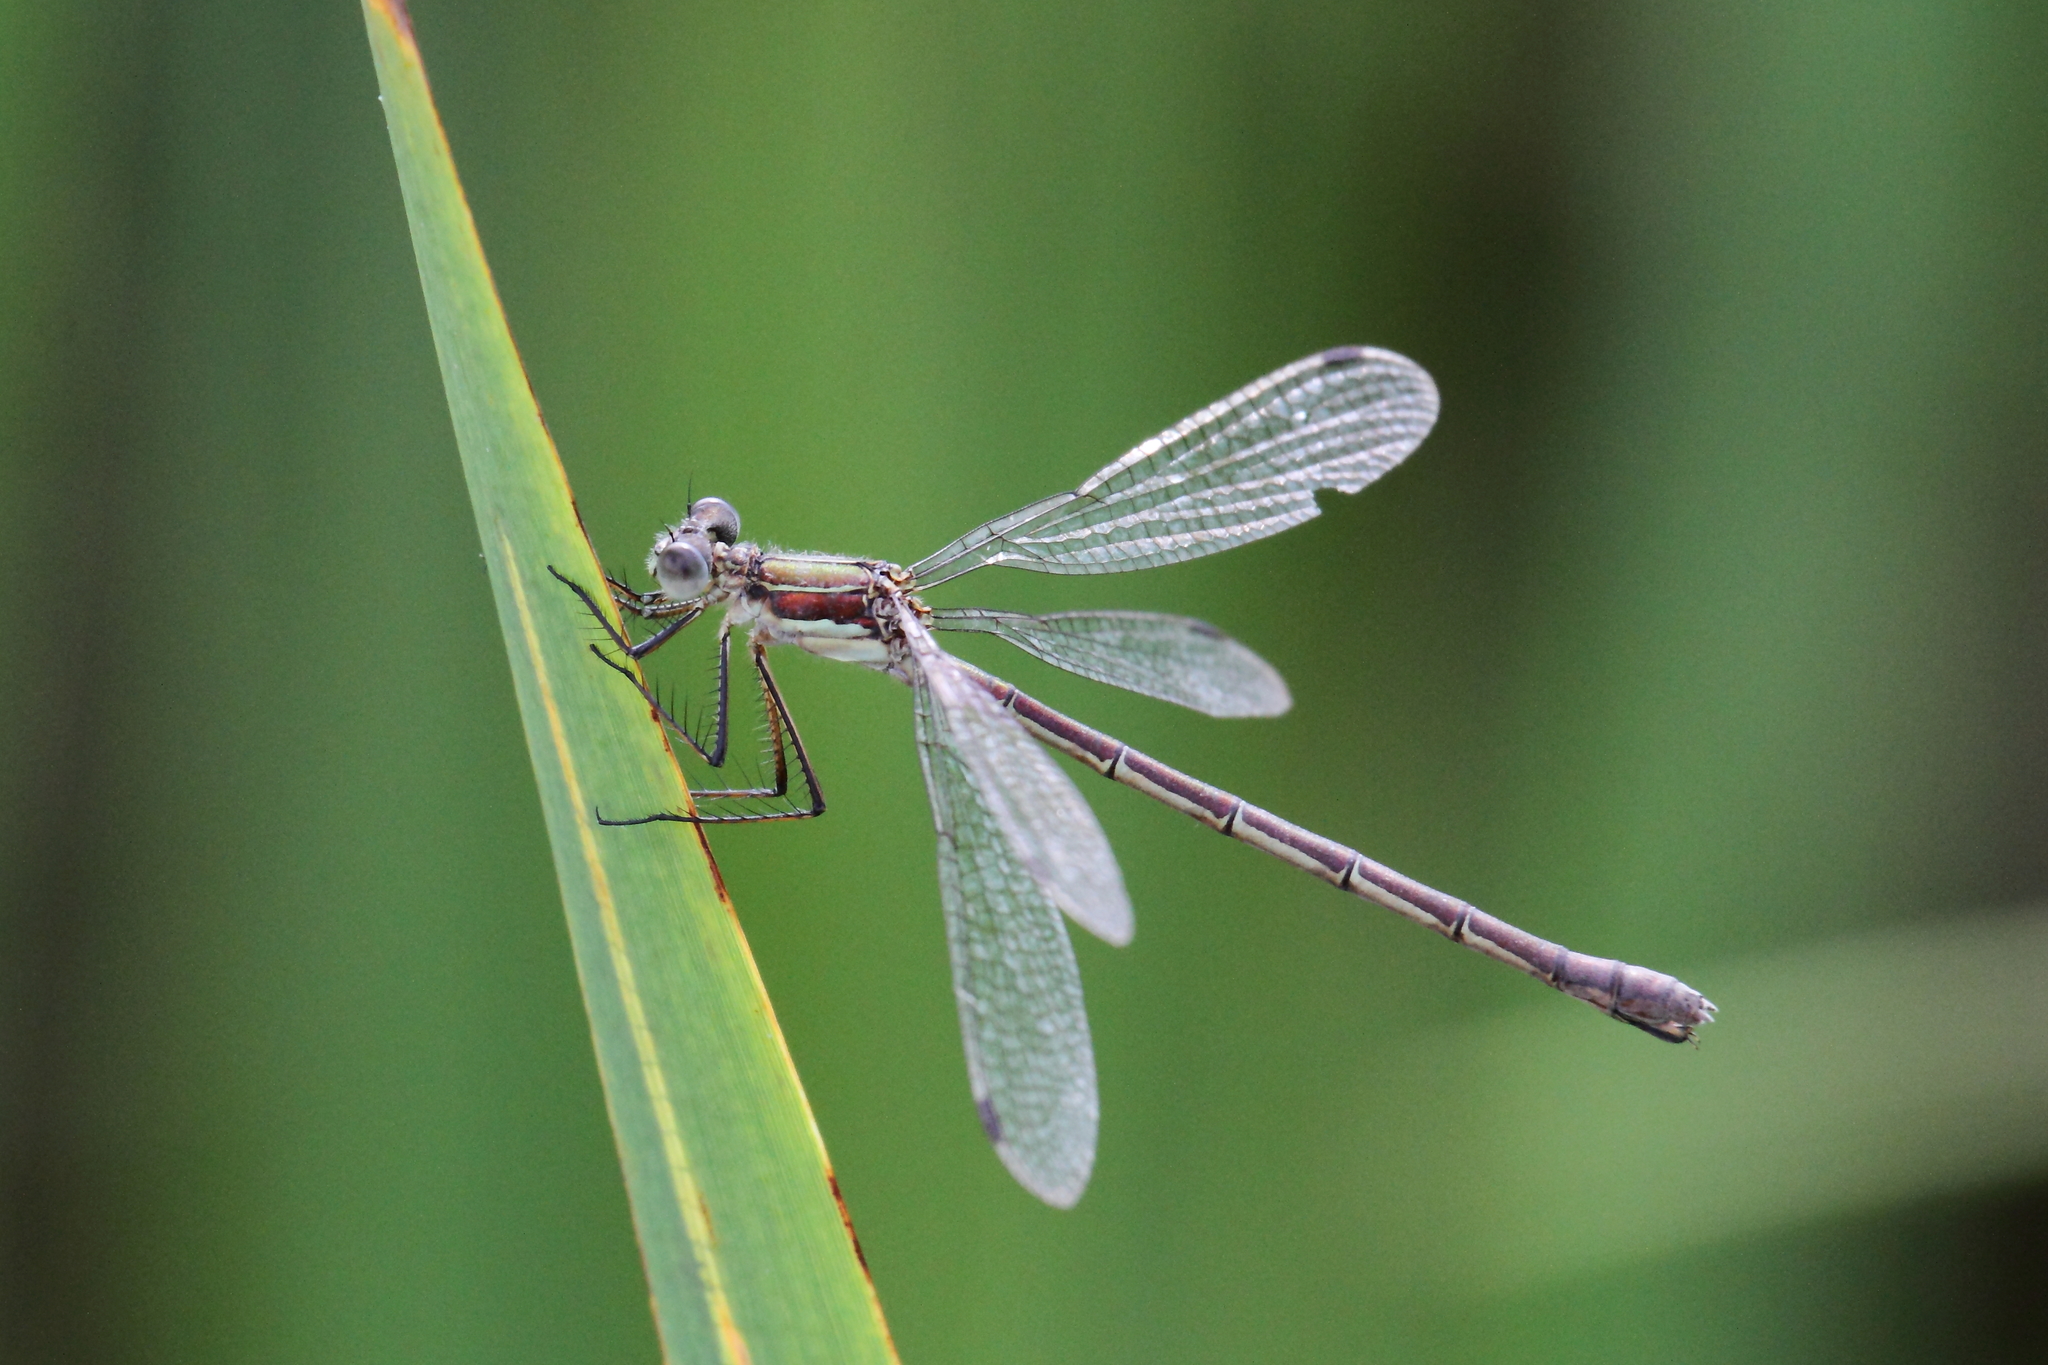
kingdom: Animalia
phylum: Arthropoda
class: Insecta
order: Odonata
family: Lestidae
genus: Lestes
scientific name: Lestes sponsa
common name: Common spreadwing
